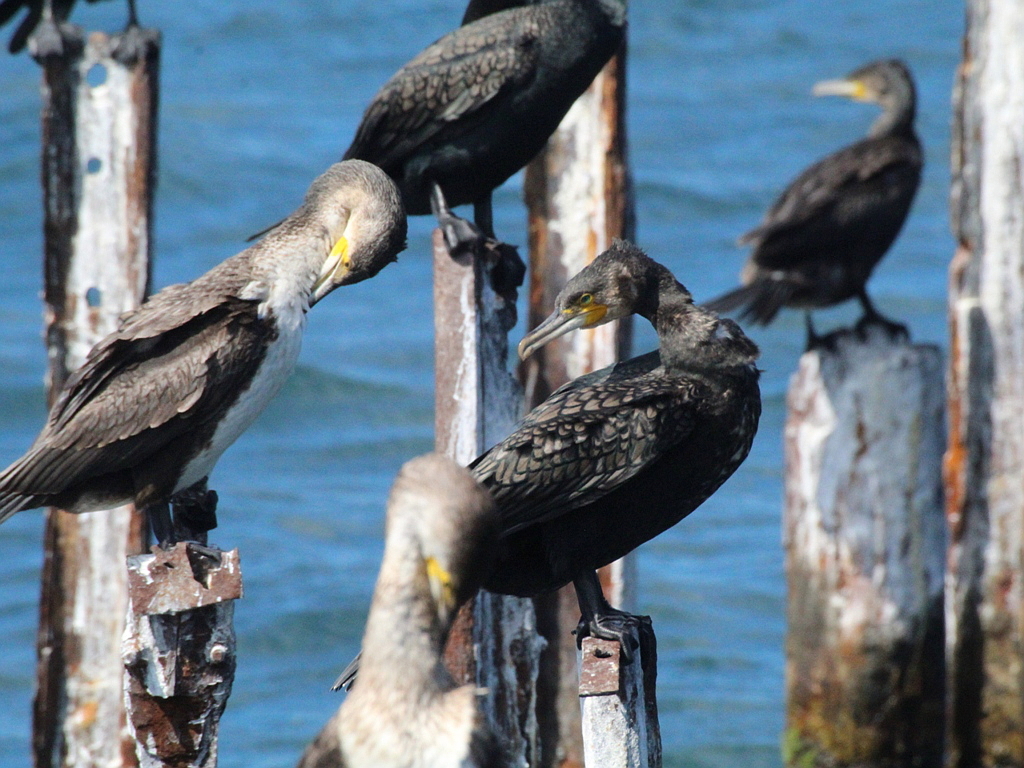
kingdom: Animalia
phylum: Chordata
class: Aves
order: Suliformes
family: Phalacrocoracidae
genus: Phalacrocorax
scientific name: Phalacrocorax carbo
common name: Great cormorant
